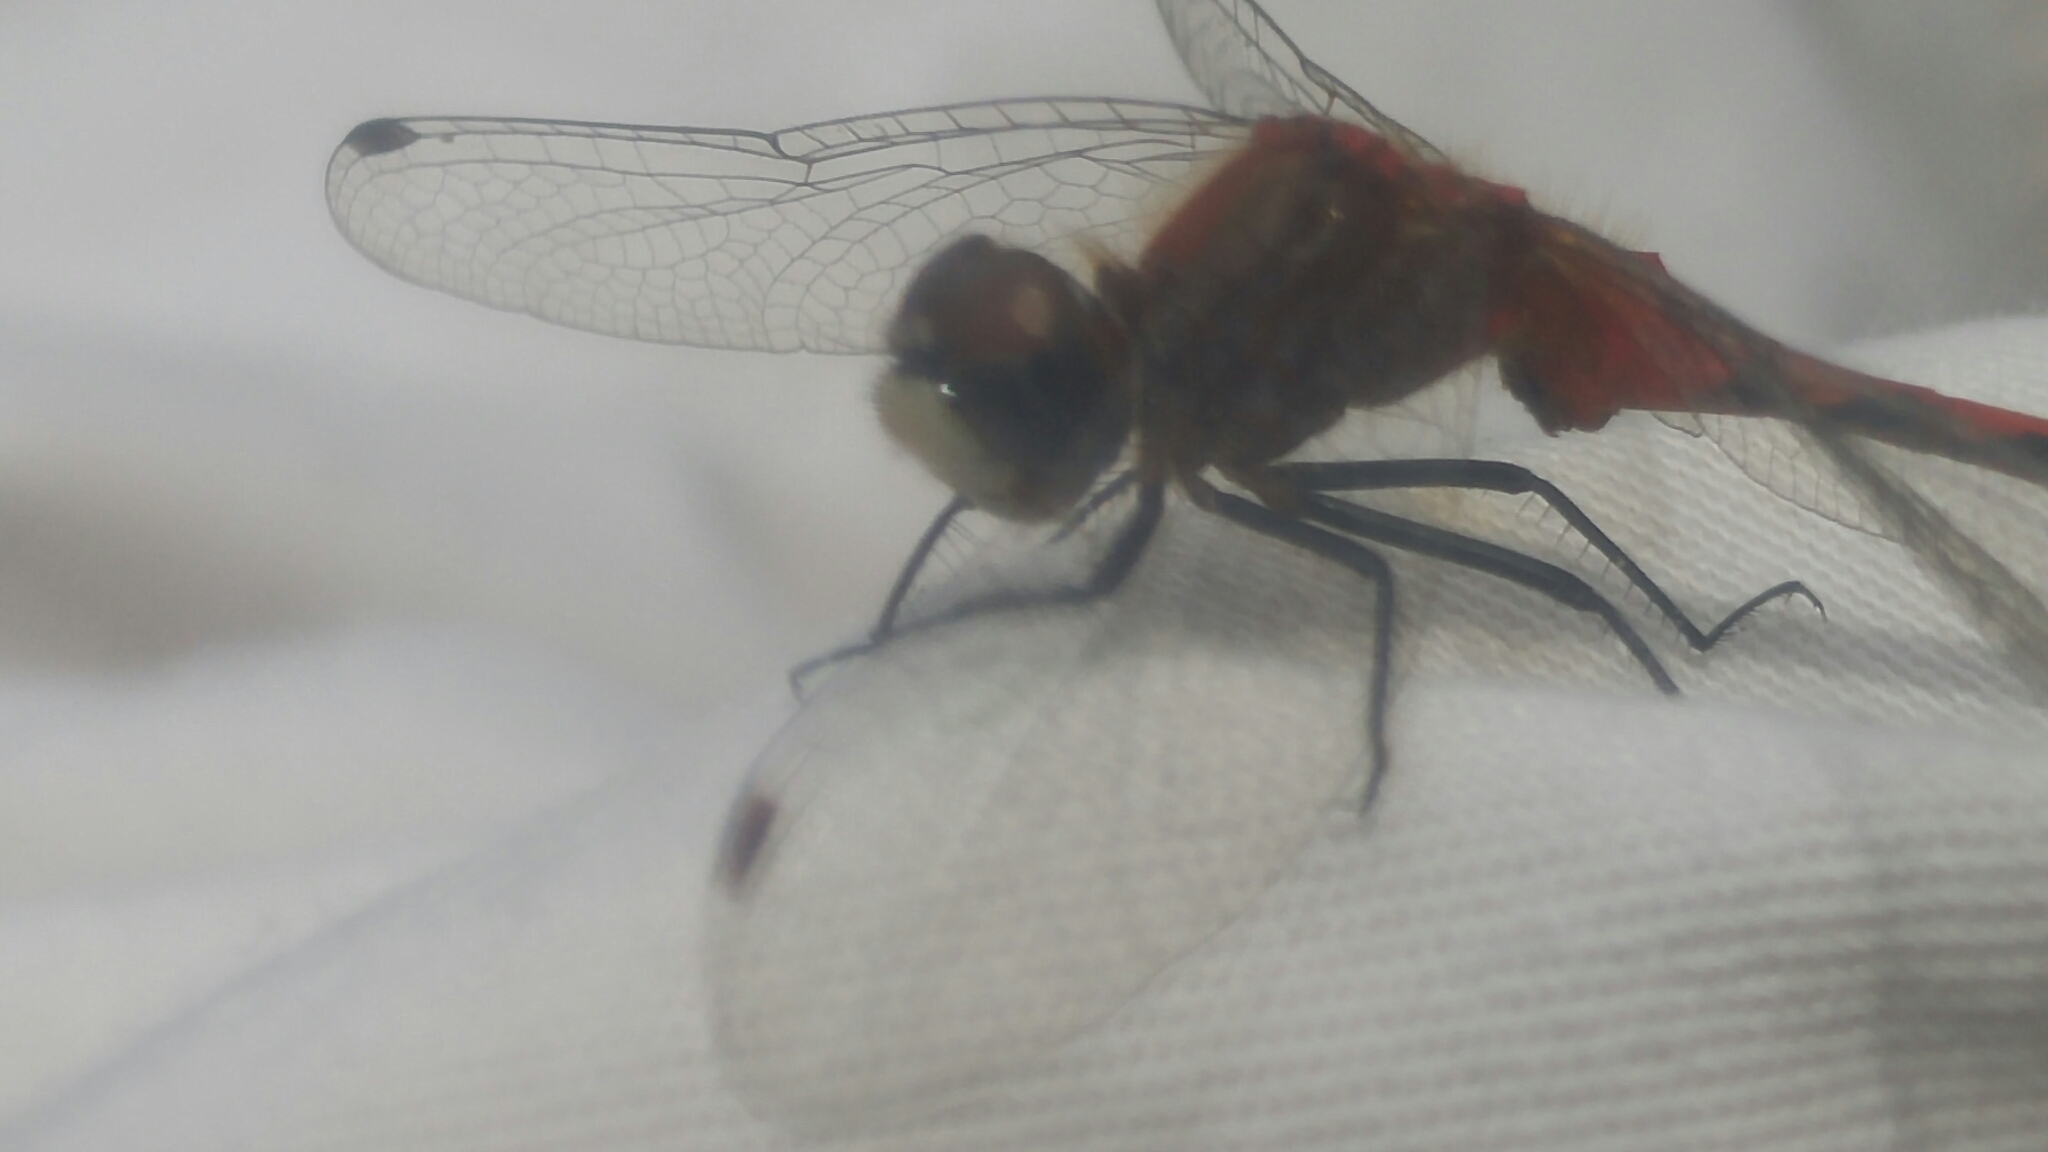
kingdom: Animalia
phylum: Arthropoda
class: Insecta
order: Odonata
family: Libellulidae
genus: Sympetrum
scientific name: Sympetrum obtrusum
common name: White-faced meadowhawk
